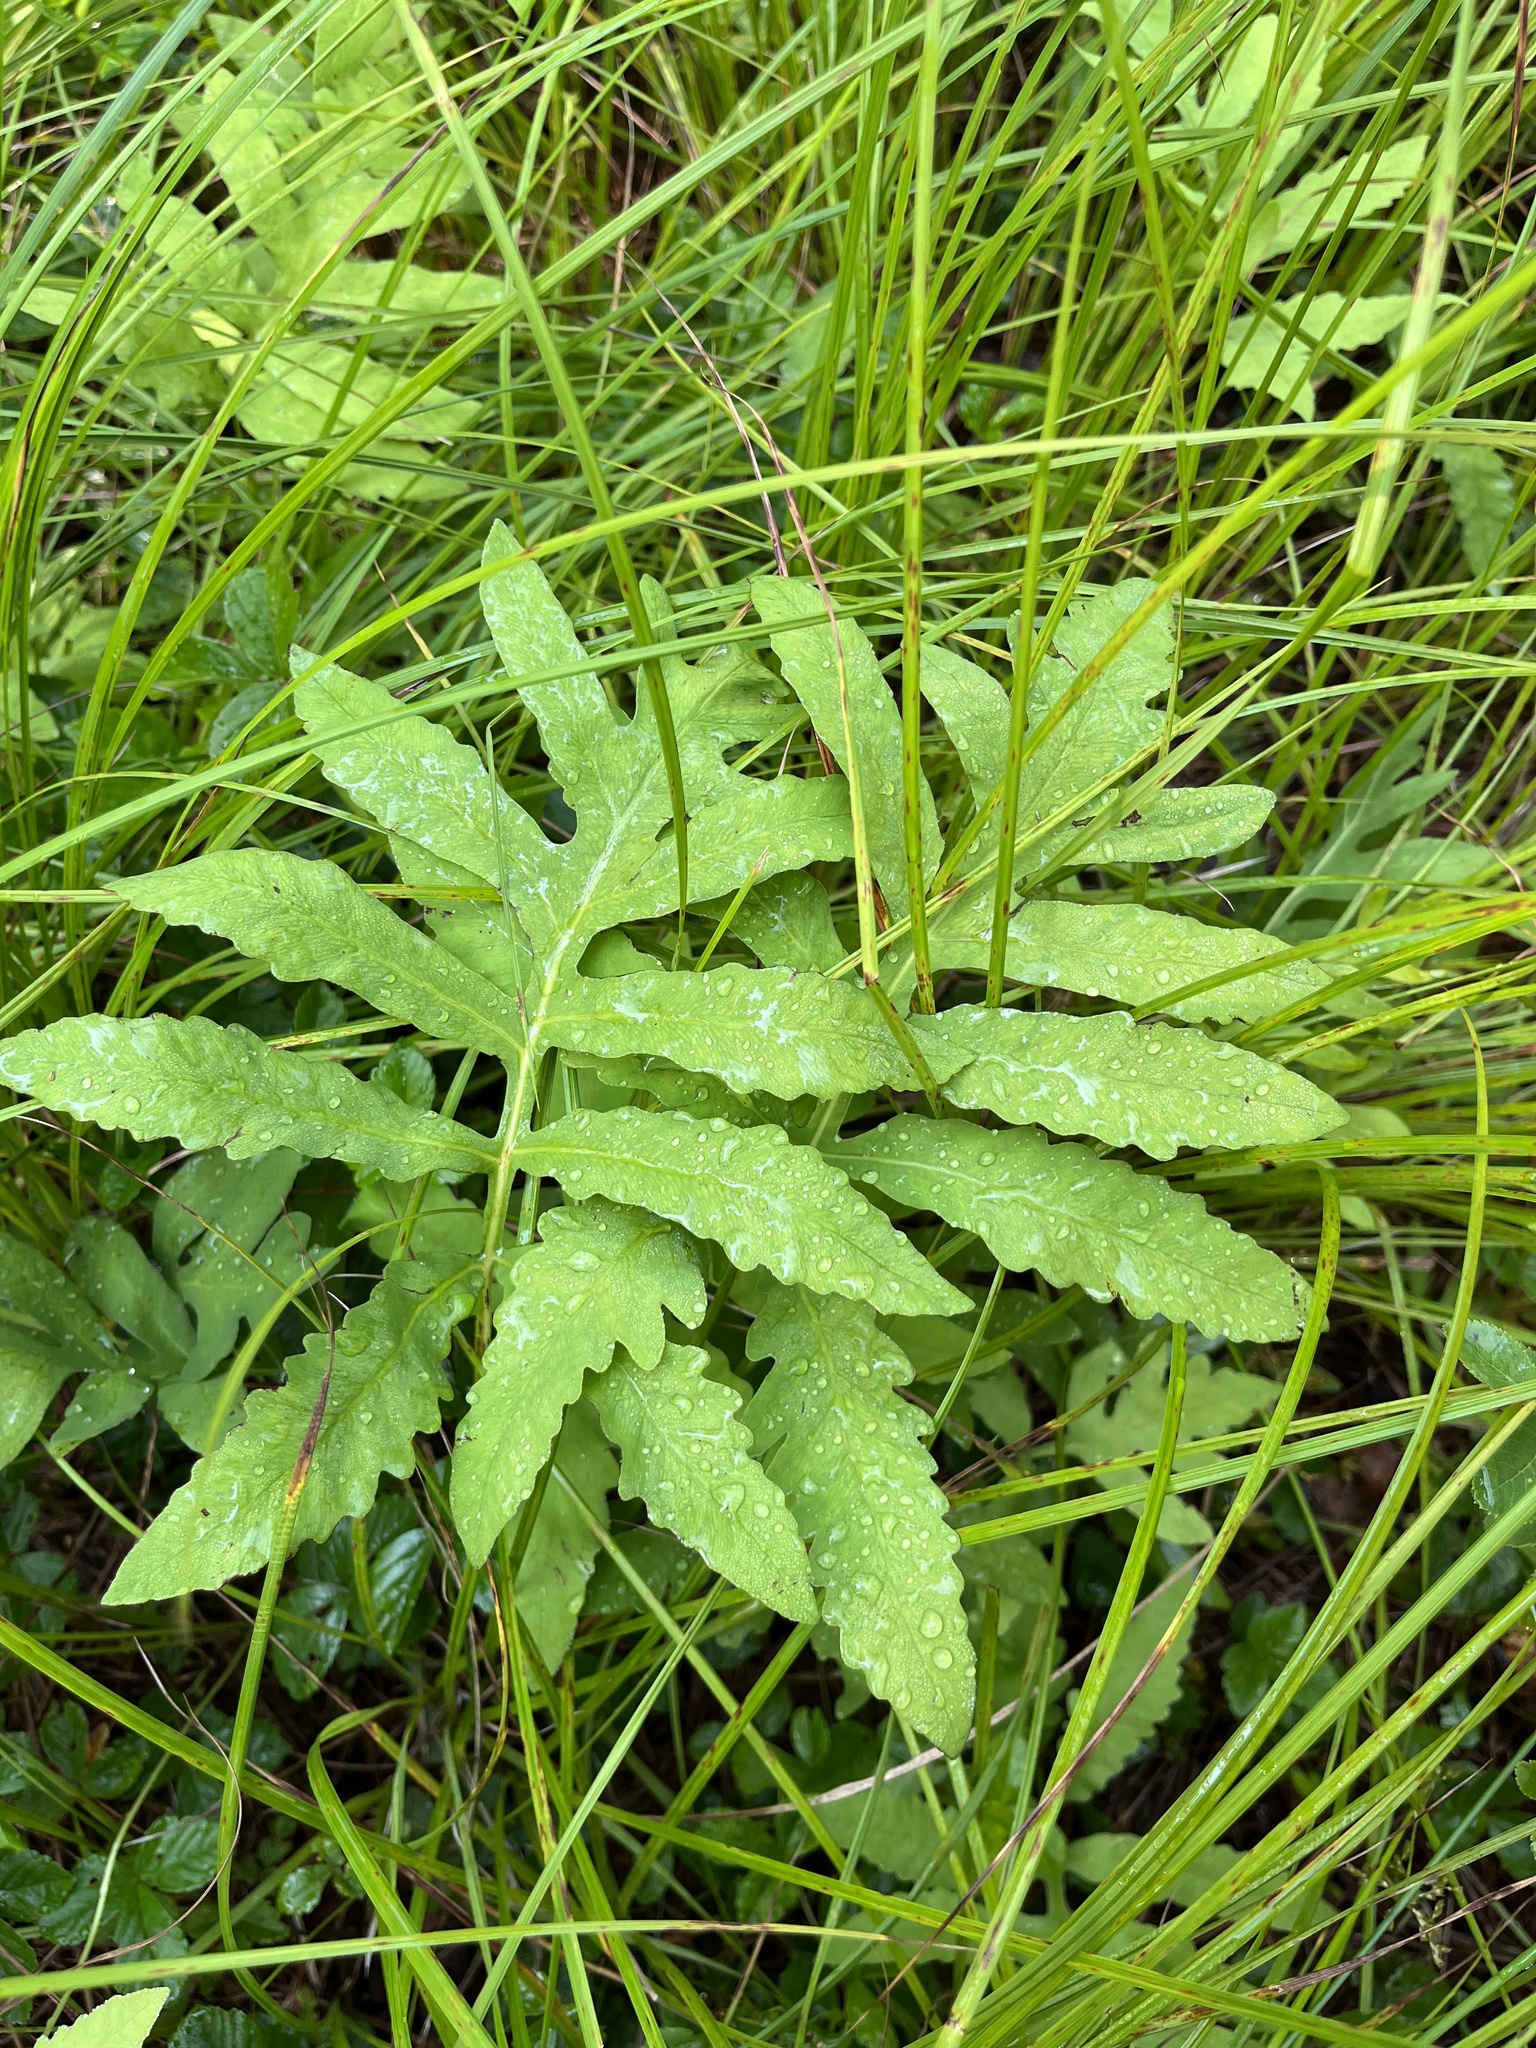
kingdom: Plantae
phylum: Tracheophyta
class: Polypodiopsida
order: Polypodiales
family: Onocleaceae
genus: Onoclea
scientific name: Onoclea sensibilis
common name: Sensitive fern
